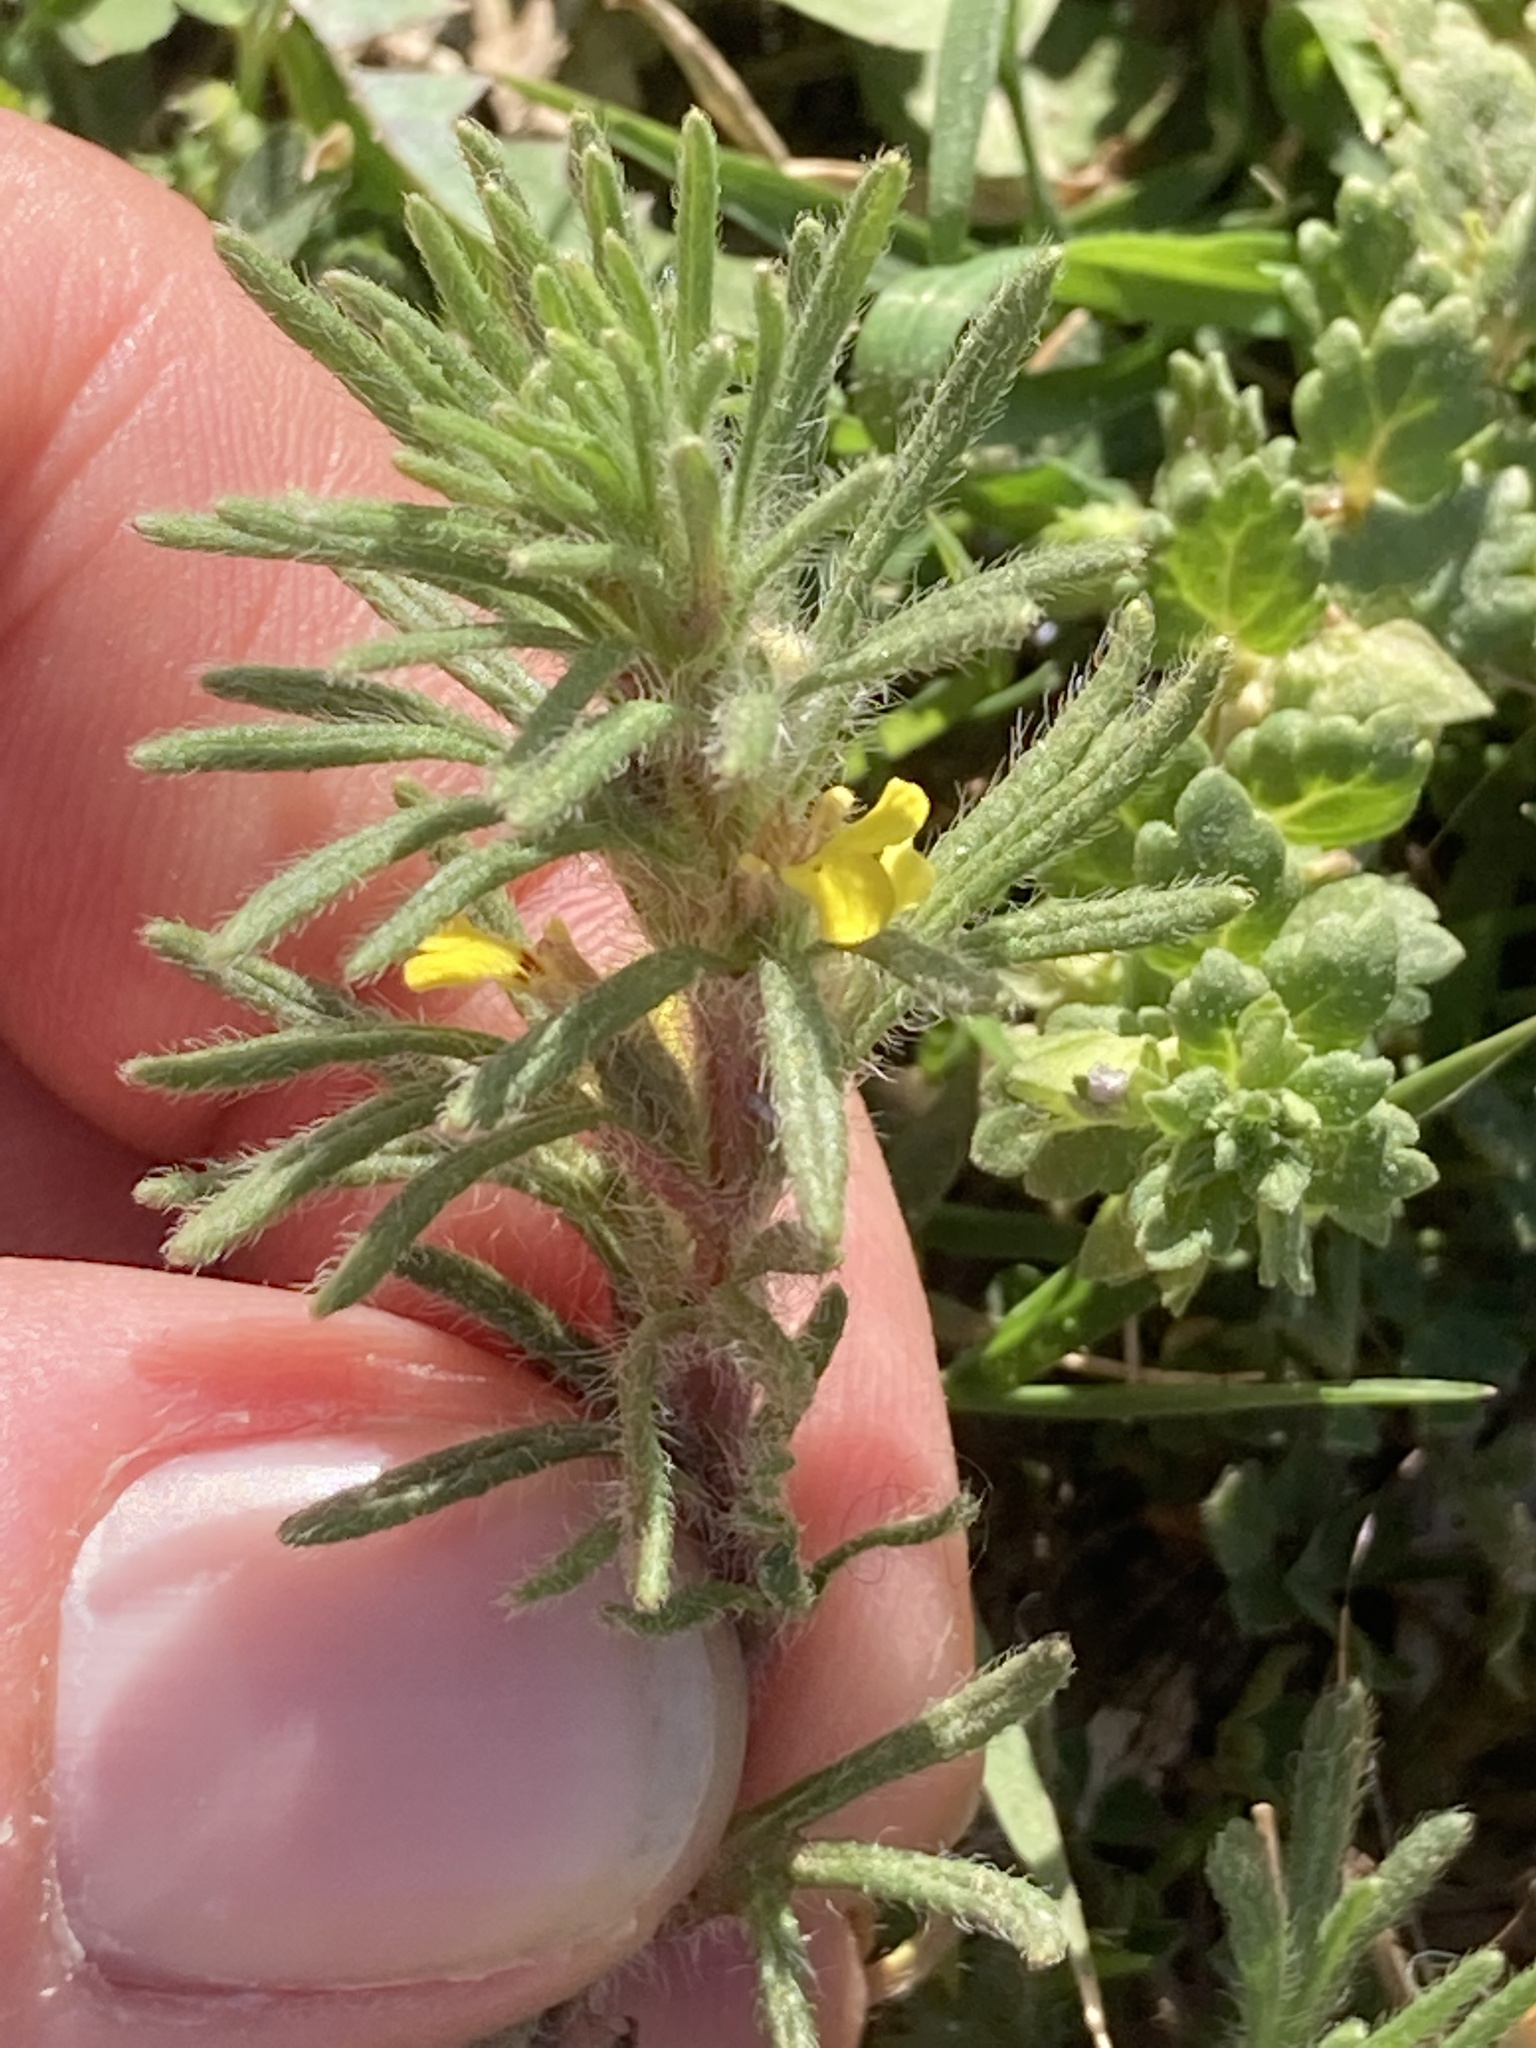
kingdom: Plantae
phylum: Tracheophyta
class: Magnoliopsida
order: Lamiales
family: Lamiaceae
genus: Ajuga
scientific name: Ajuga chamaepitys
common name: Ground-pine
